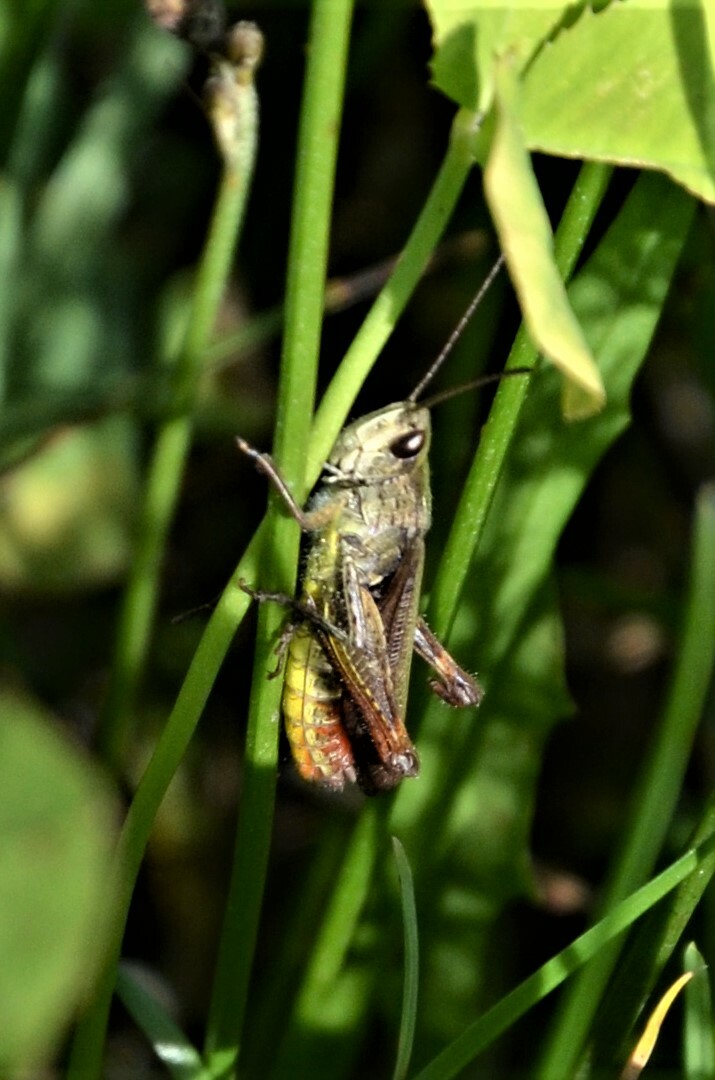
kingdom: Animalia
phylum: Arthropoda
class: Insecta
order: Orthoptera
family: Acrididae
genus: Chorthippus
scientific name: Chorthippus dorsatus
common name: Steppe grasshopper
